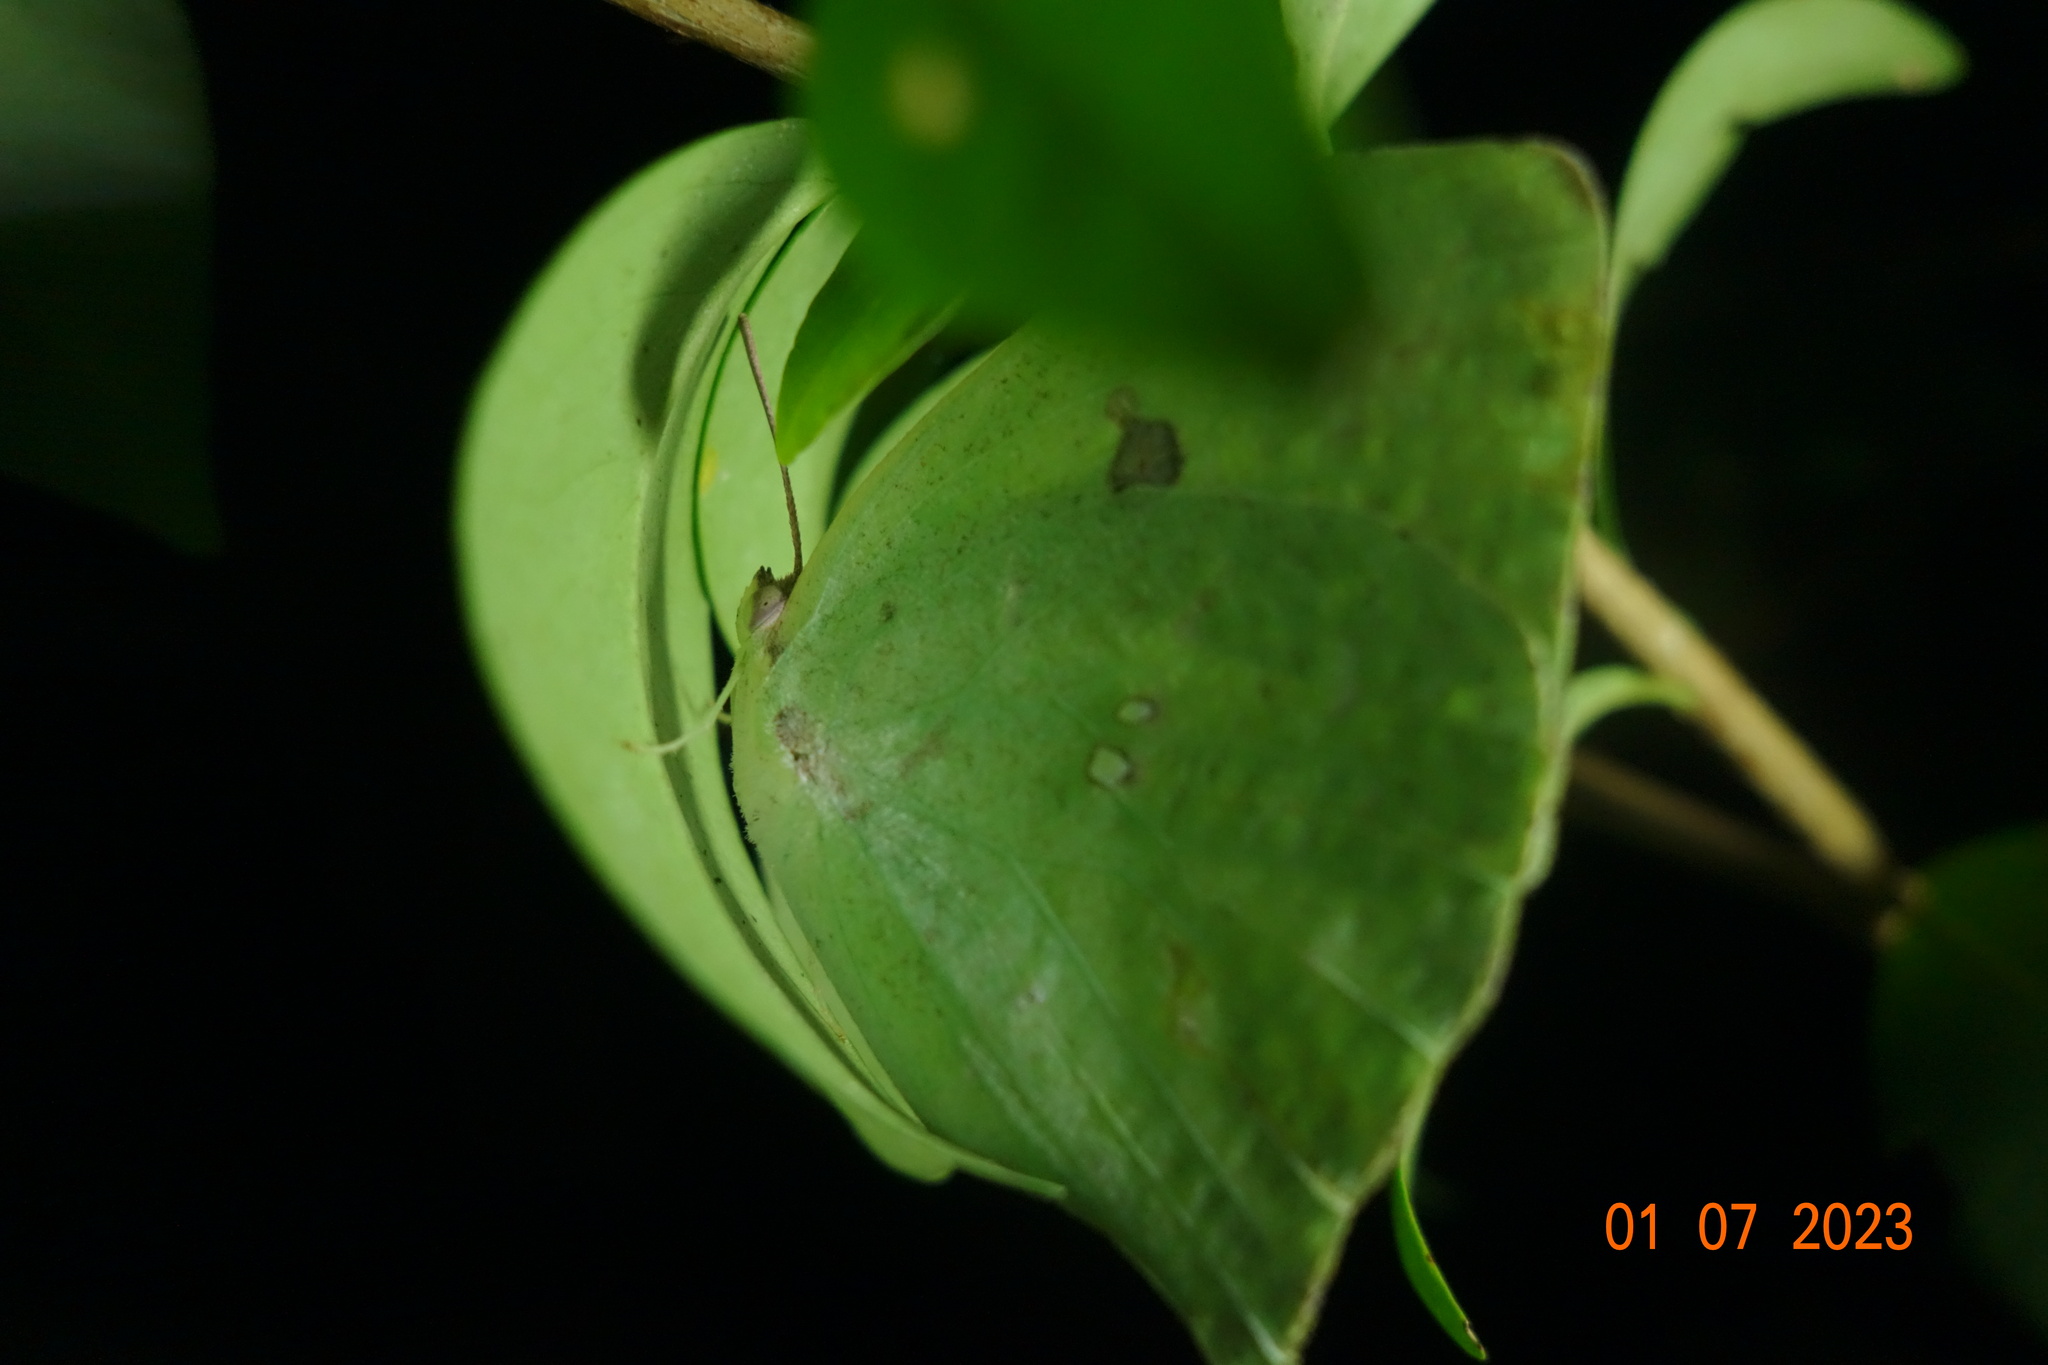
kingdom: Animalia
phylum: Arthropoda
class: Insecta
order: Lepidoptera
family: Pieridae
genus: Phoebis
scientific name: Phoebis neocypris
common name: Tailed sulphur
